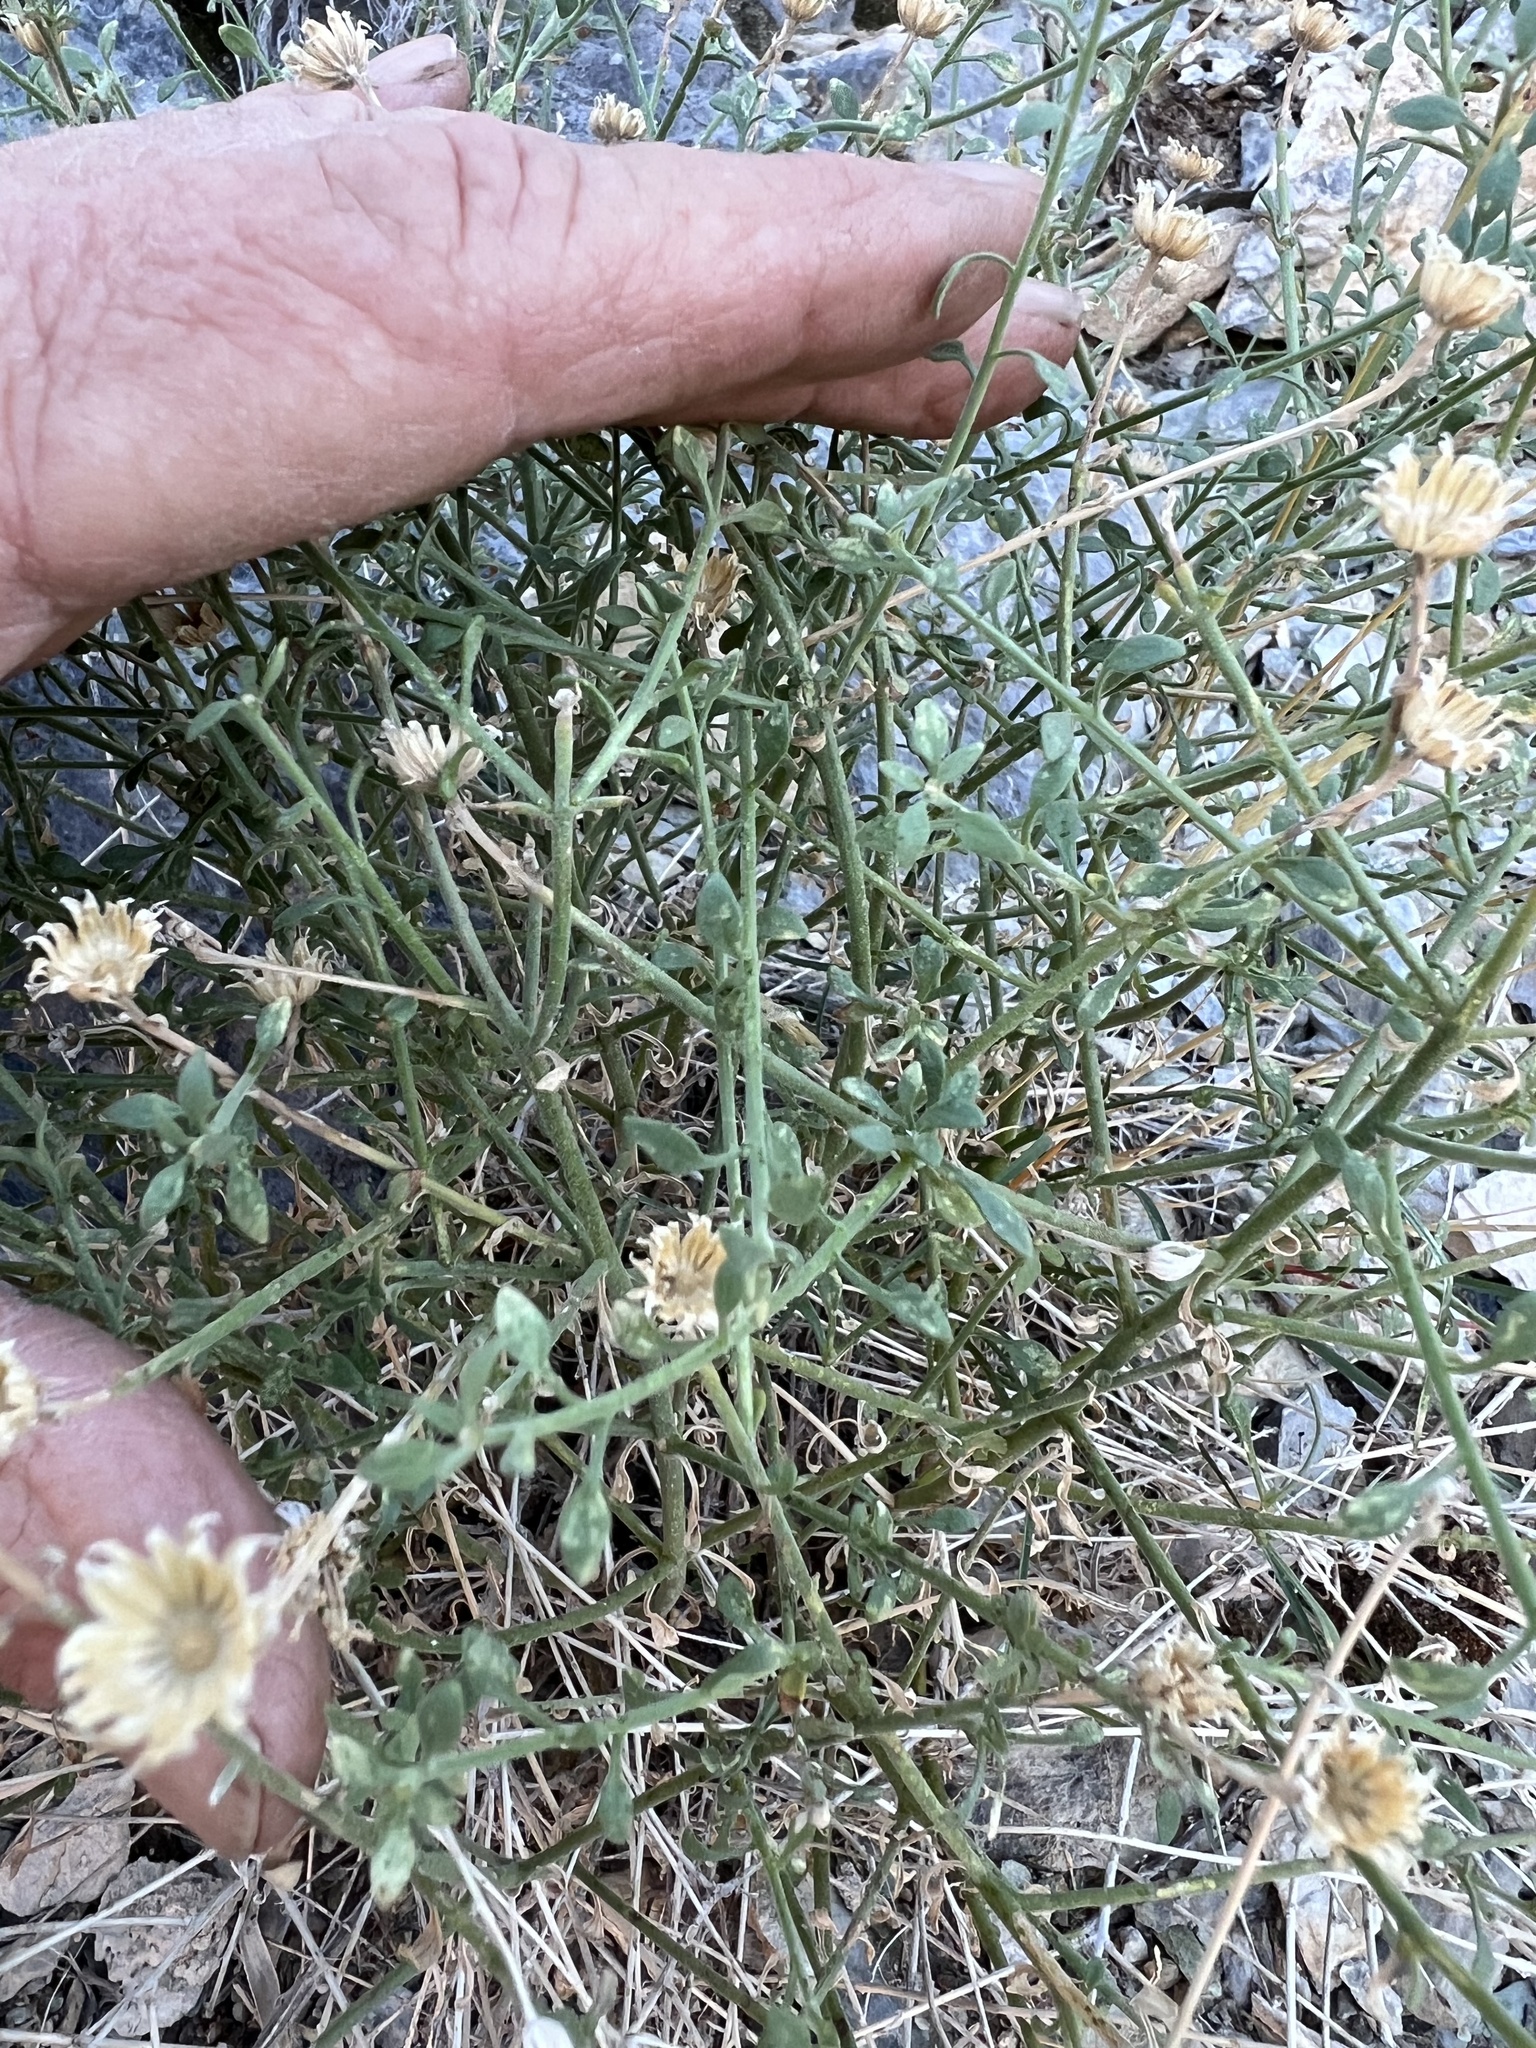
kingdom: Plantae
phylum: Tracheophyta
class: Magnoliopsida
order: Asterales
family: Asteraceae
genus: Laphamia
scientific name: Laphamia megalocephala
